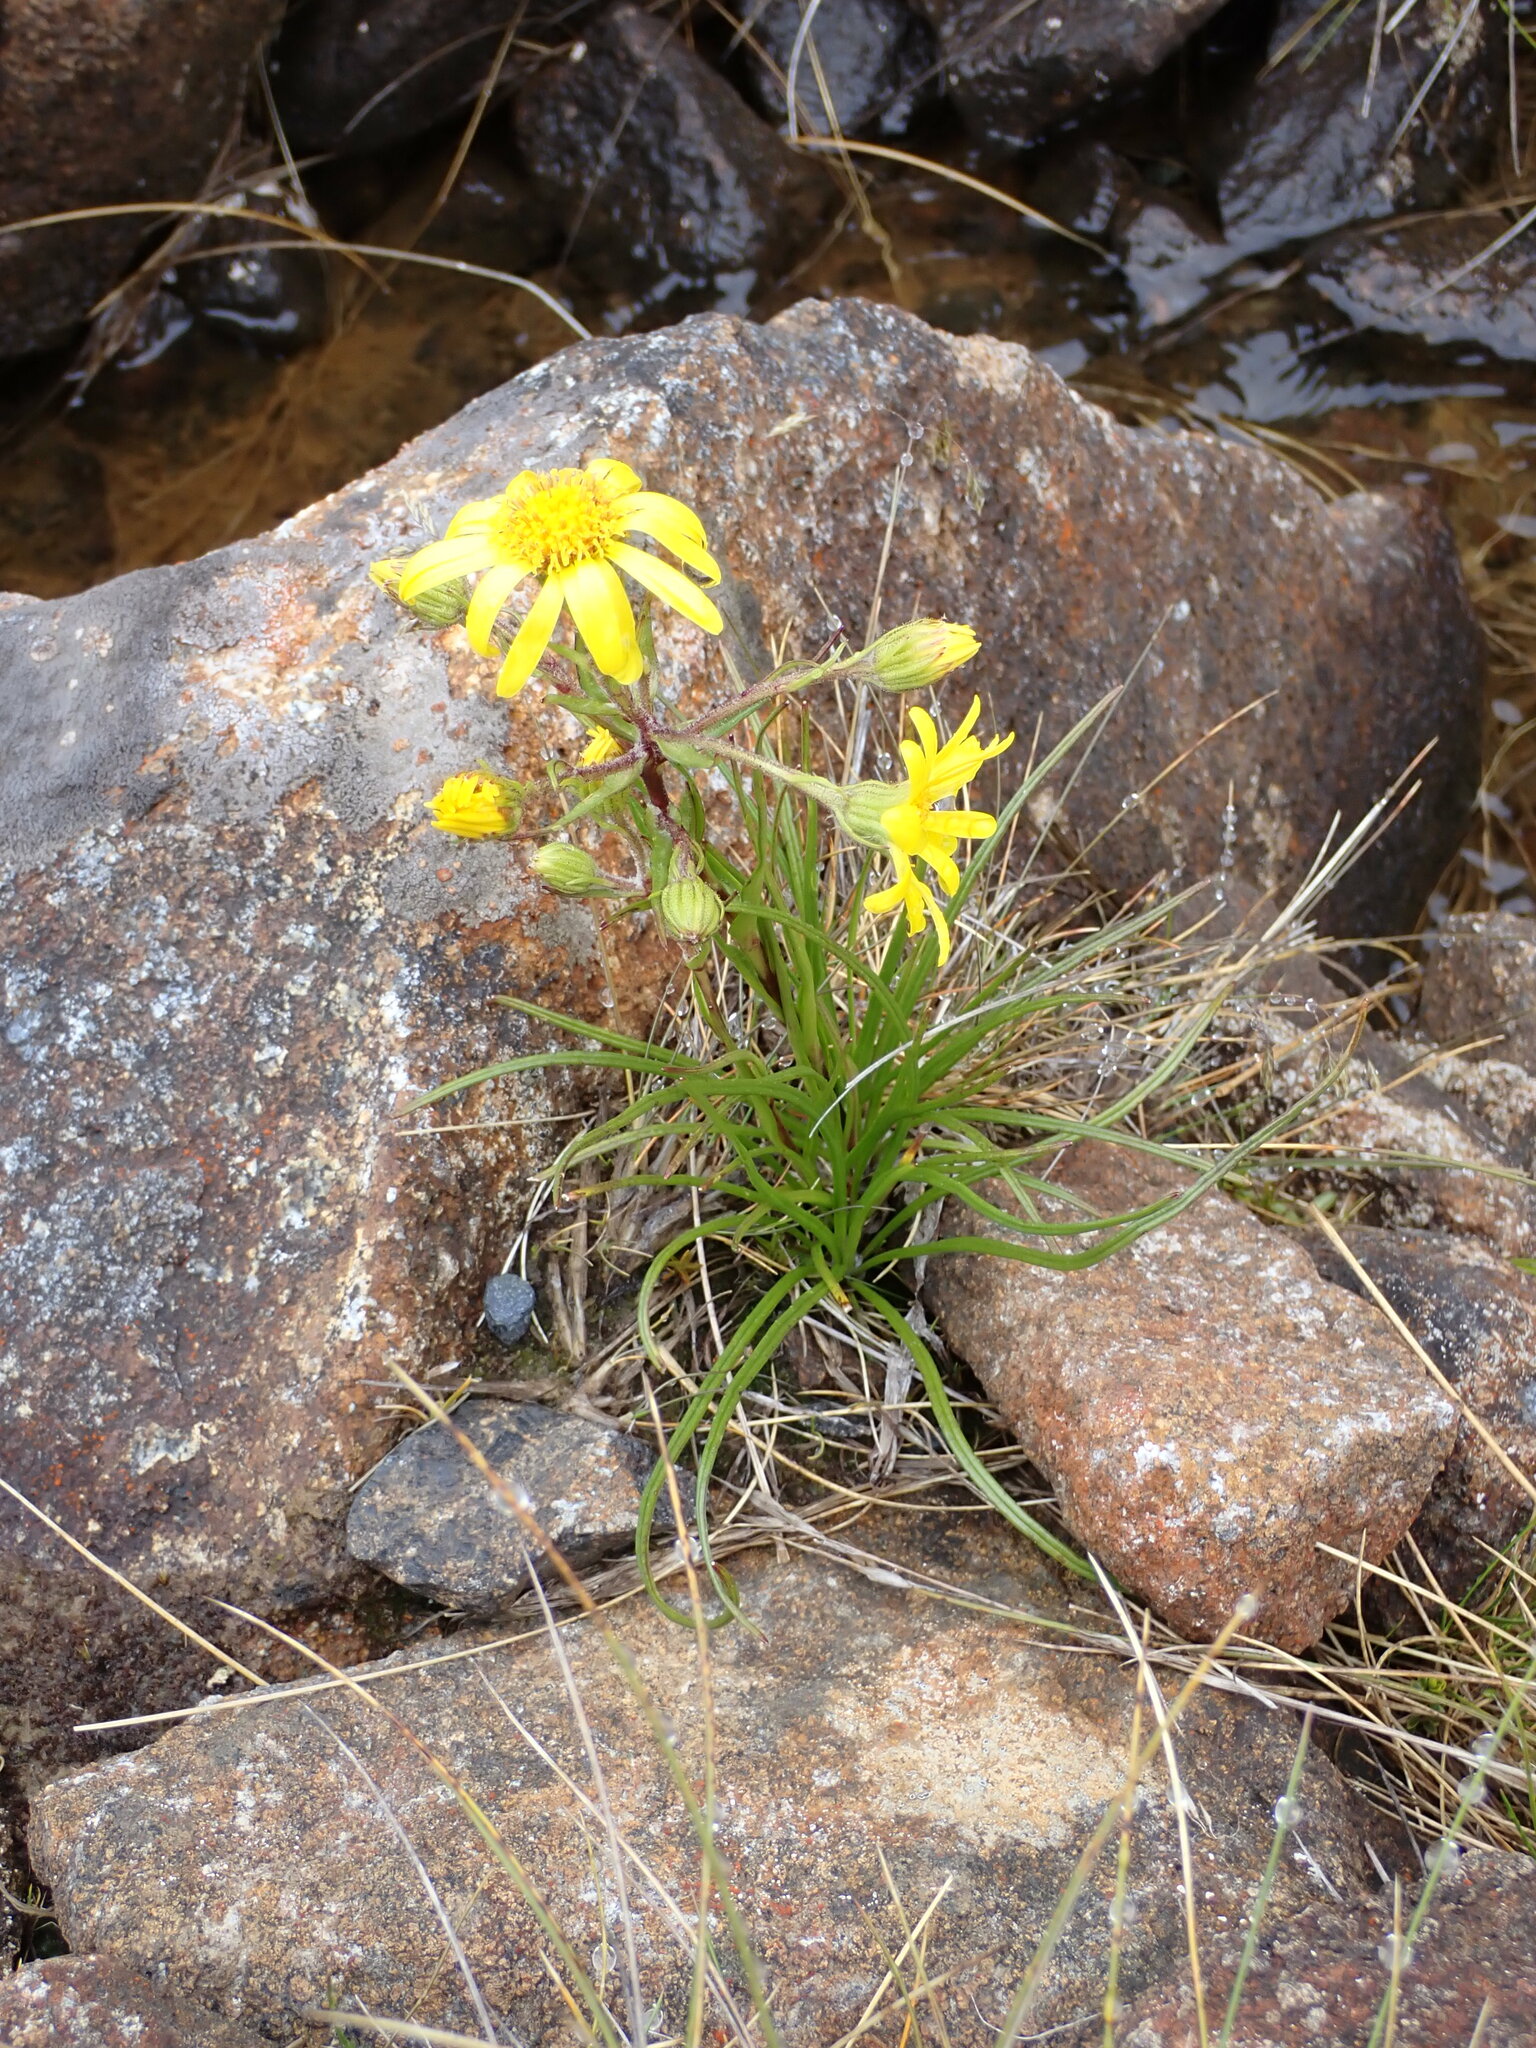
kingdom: Plantae
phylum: Tracheophyta
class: Magnoliopsida
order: Asterales
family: Asteraceae
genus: Dolichoglottis
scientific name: Dolichoglottis lyallii
